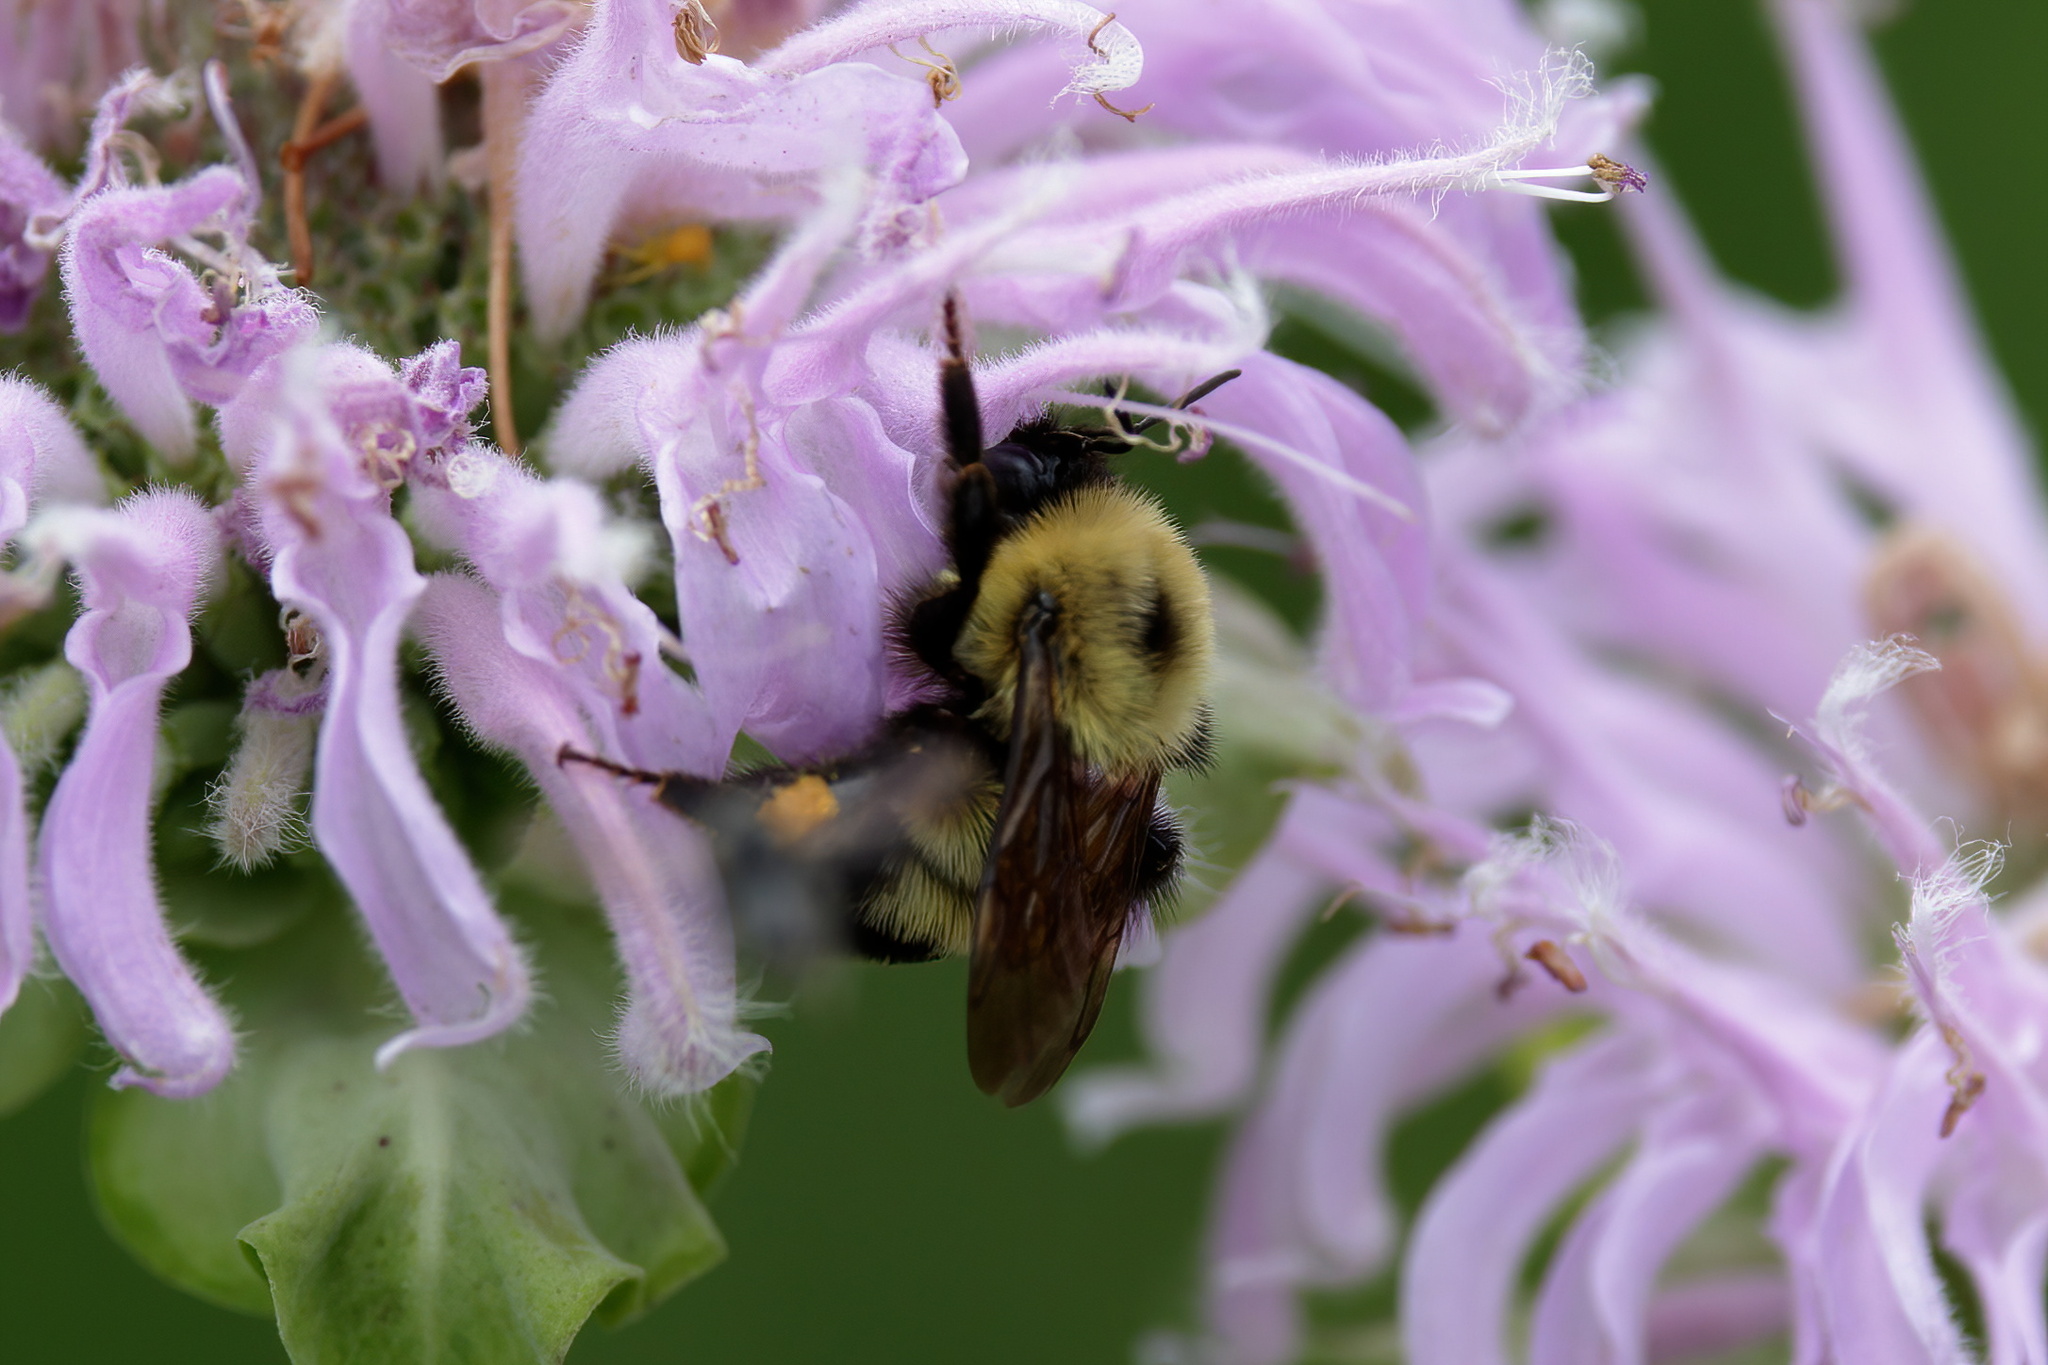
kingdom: Animalia
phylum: Arthropoda
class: Insecta
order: Hymenoptera
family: Apidae
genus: Bombus
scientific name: Bombus bimaculatus
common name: Two-spotted bumble bee
